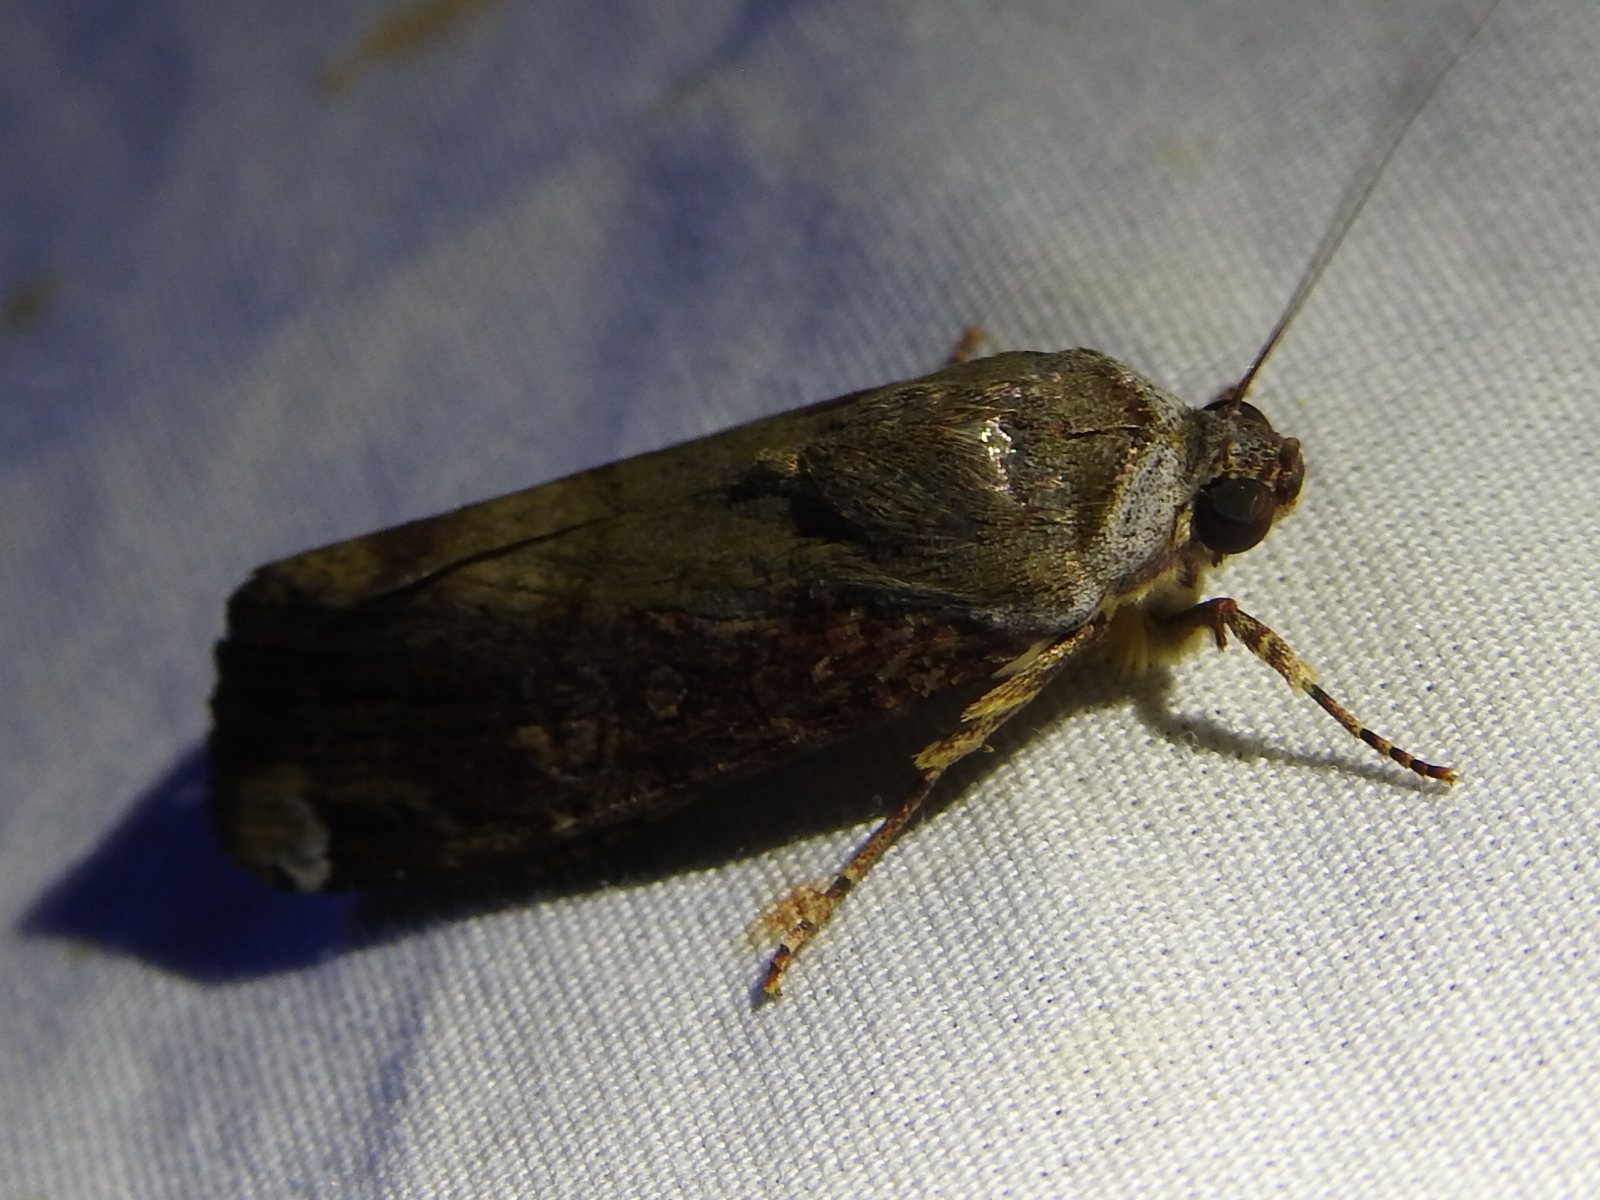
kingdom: Animalia
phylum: Arthropoda
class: Insecta
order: Lepidoptera
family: Noctuidae
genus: Magusa
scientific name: Magusa divaricata
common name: Orb narrow-winged moth
